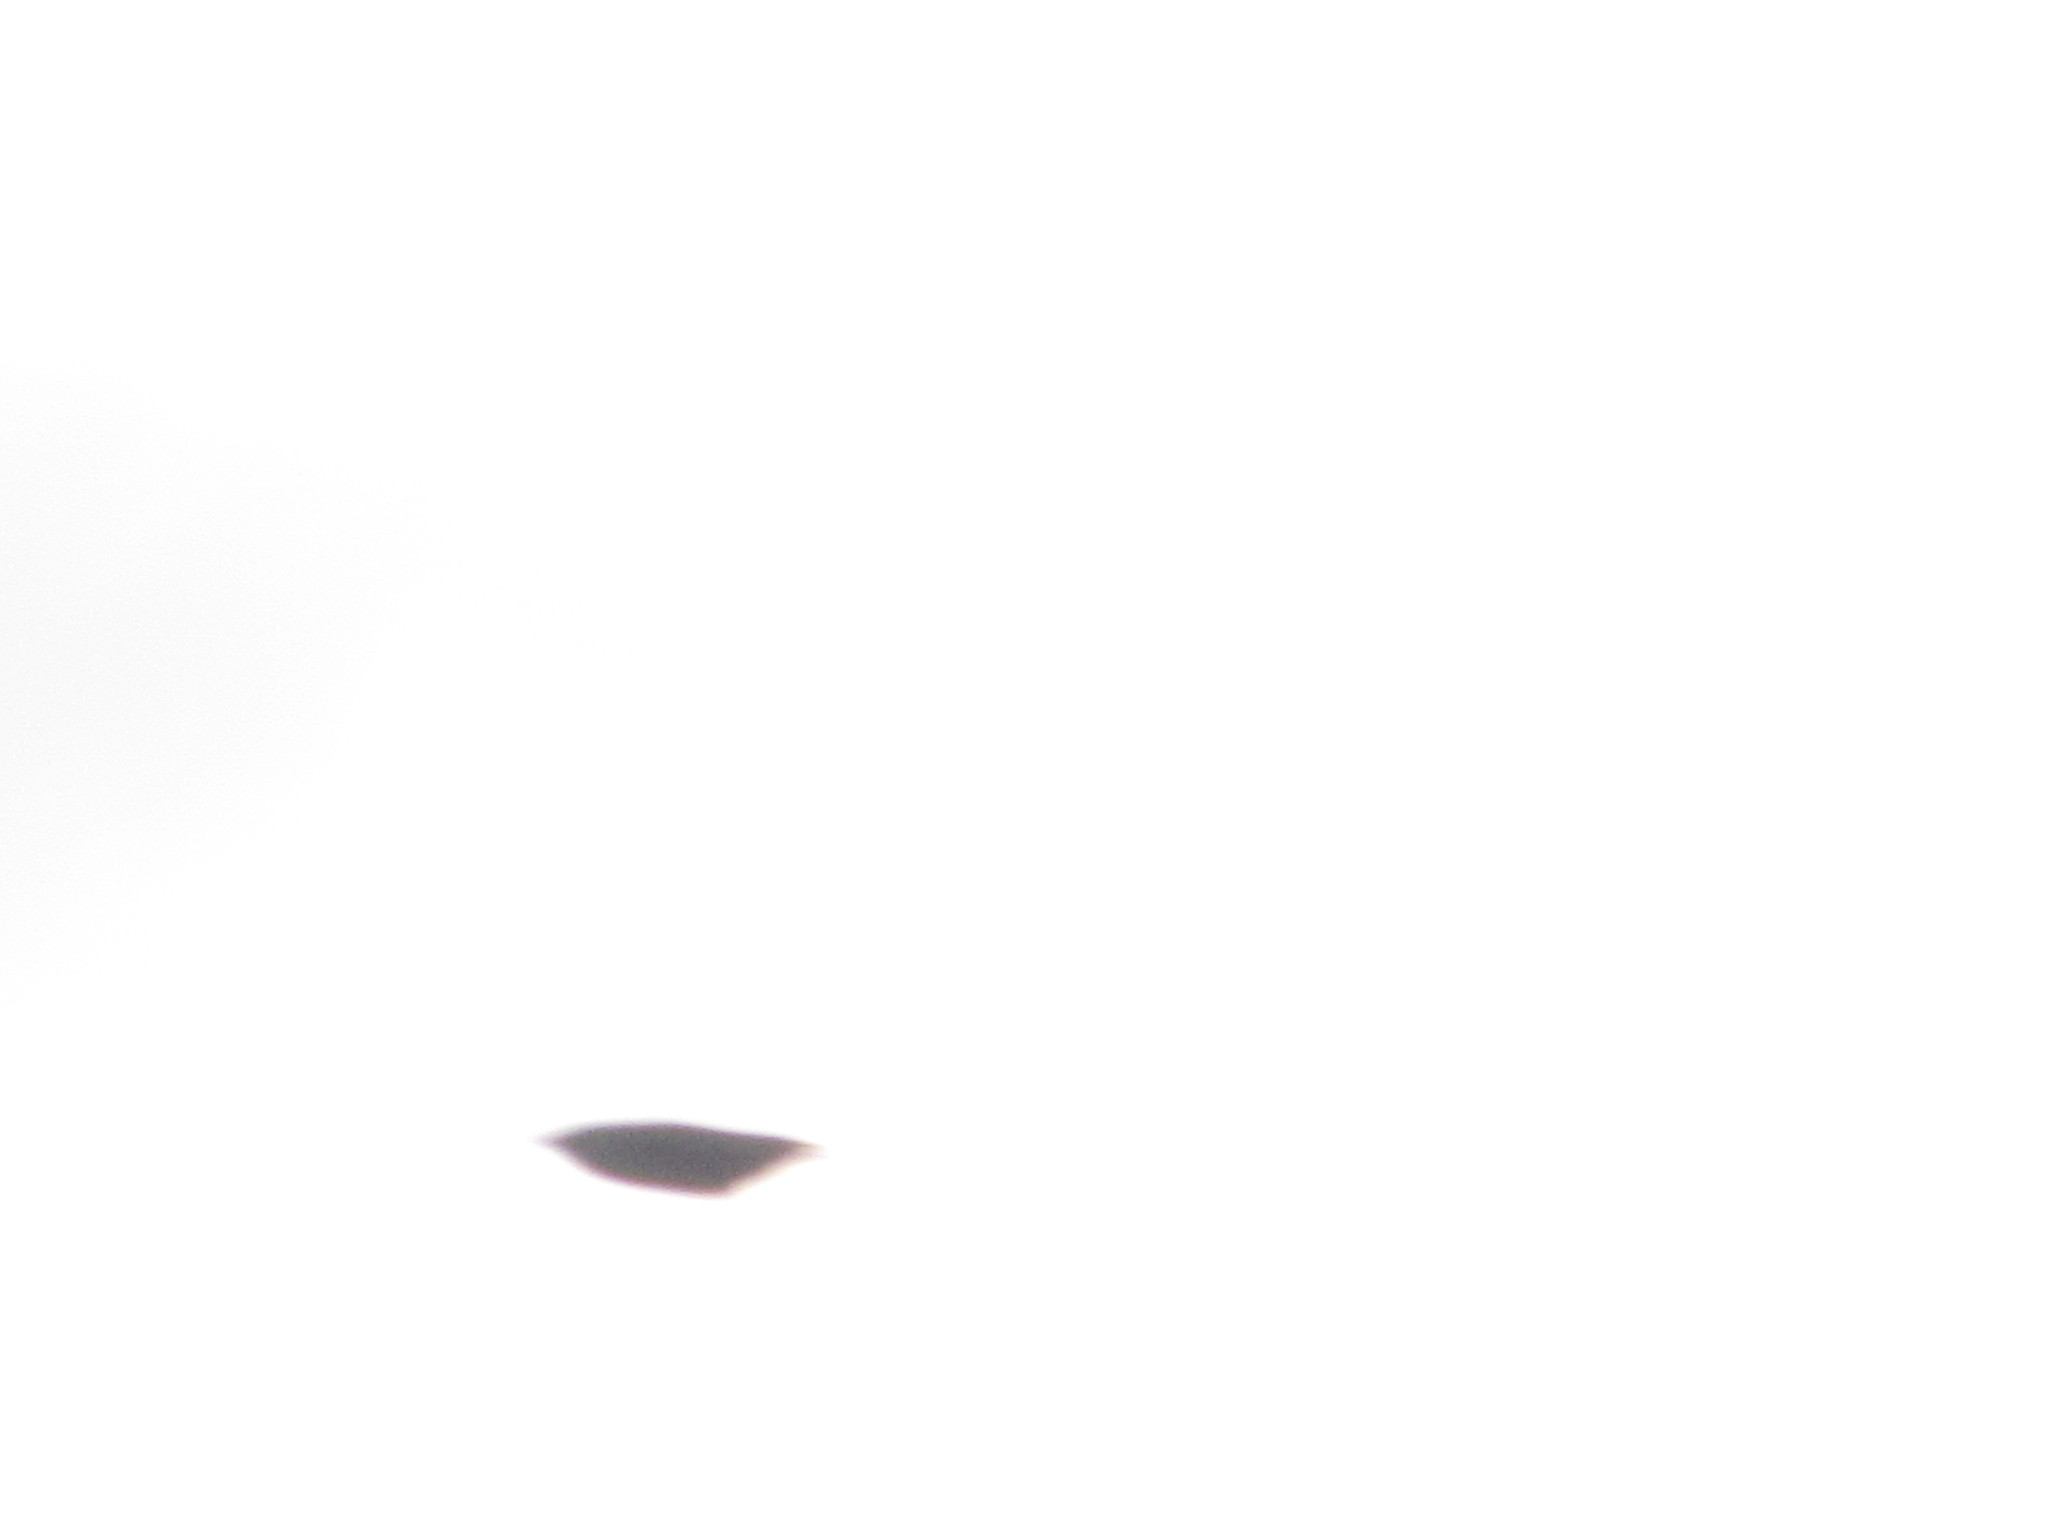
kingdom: Animalia
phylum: Chordata
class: Aves
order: Passeriformes
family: Sturnidae
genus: Sturnus
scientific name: Sturnus vulgaris
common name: Common starling
